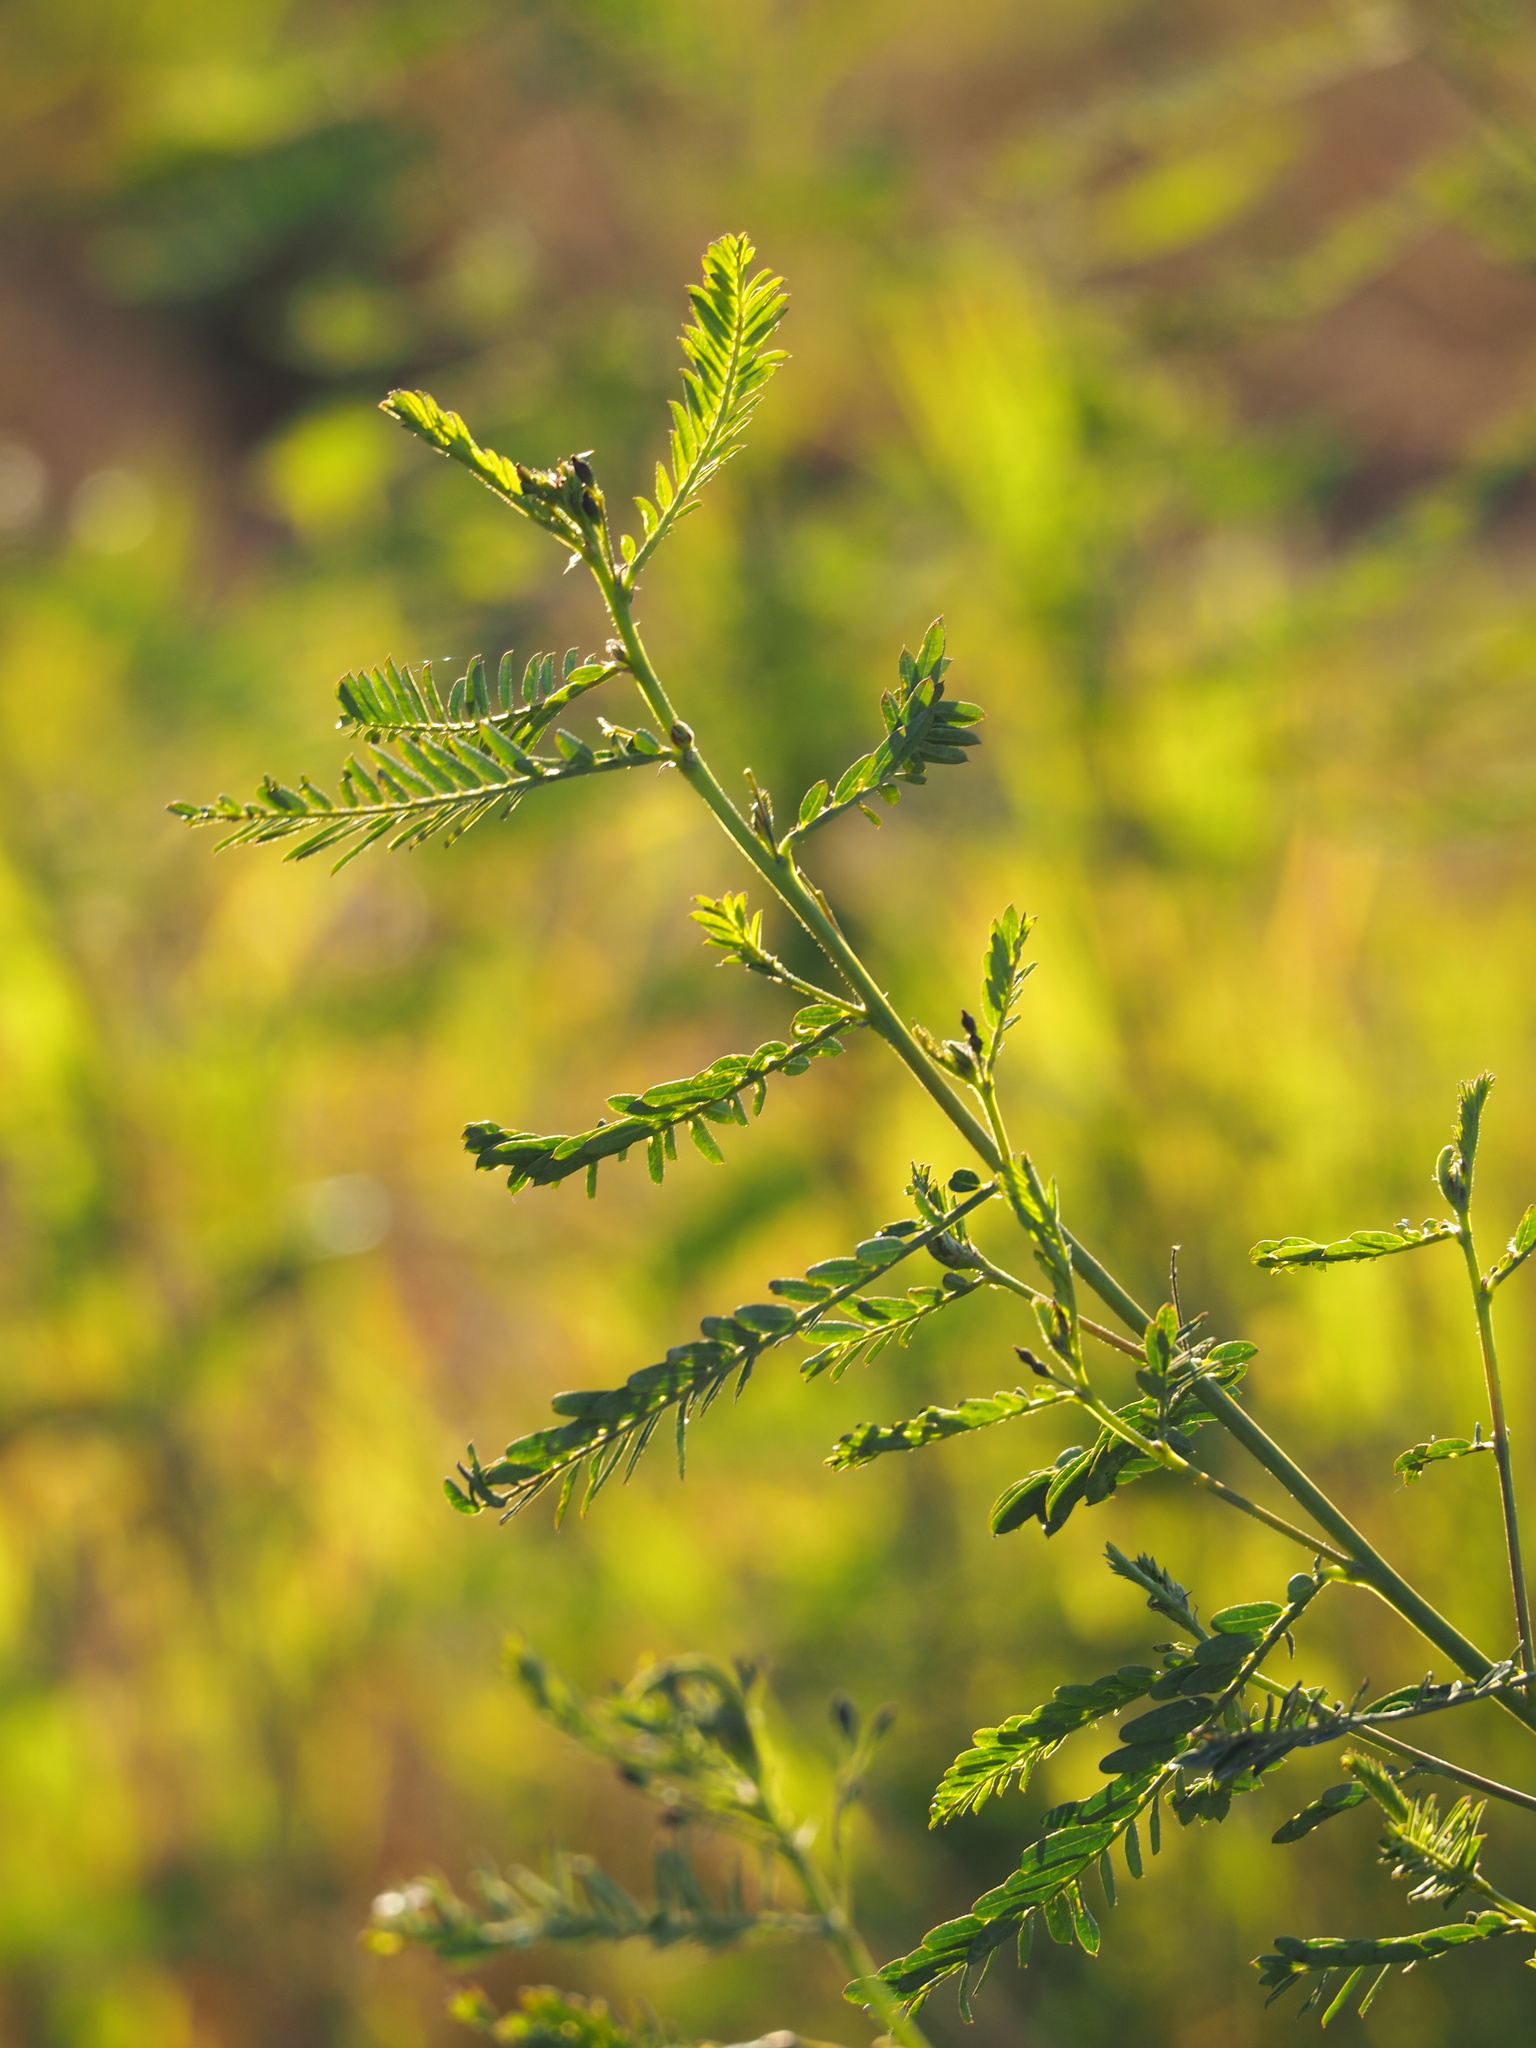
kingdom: Plantae
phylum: Tracheophyta
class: Magnoliopsida
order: Fabales
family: Fabaceae
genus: Sesbania
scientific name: Sesbania cannabina
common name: Canicha
